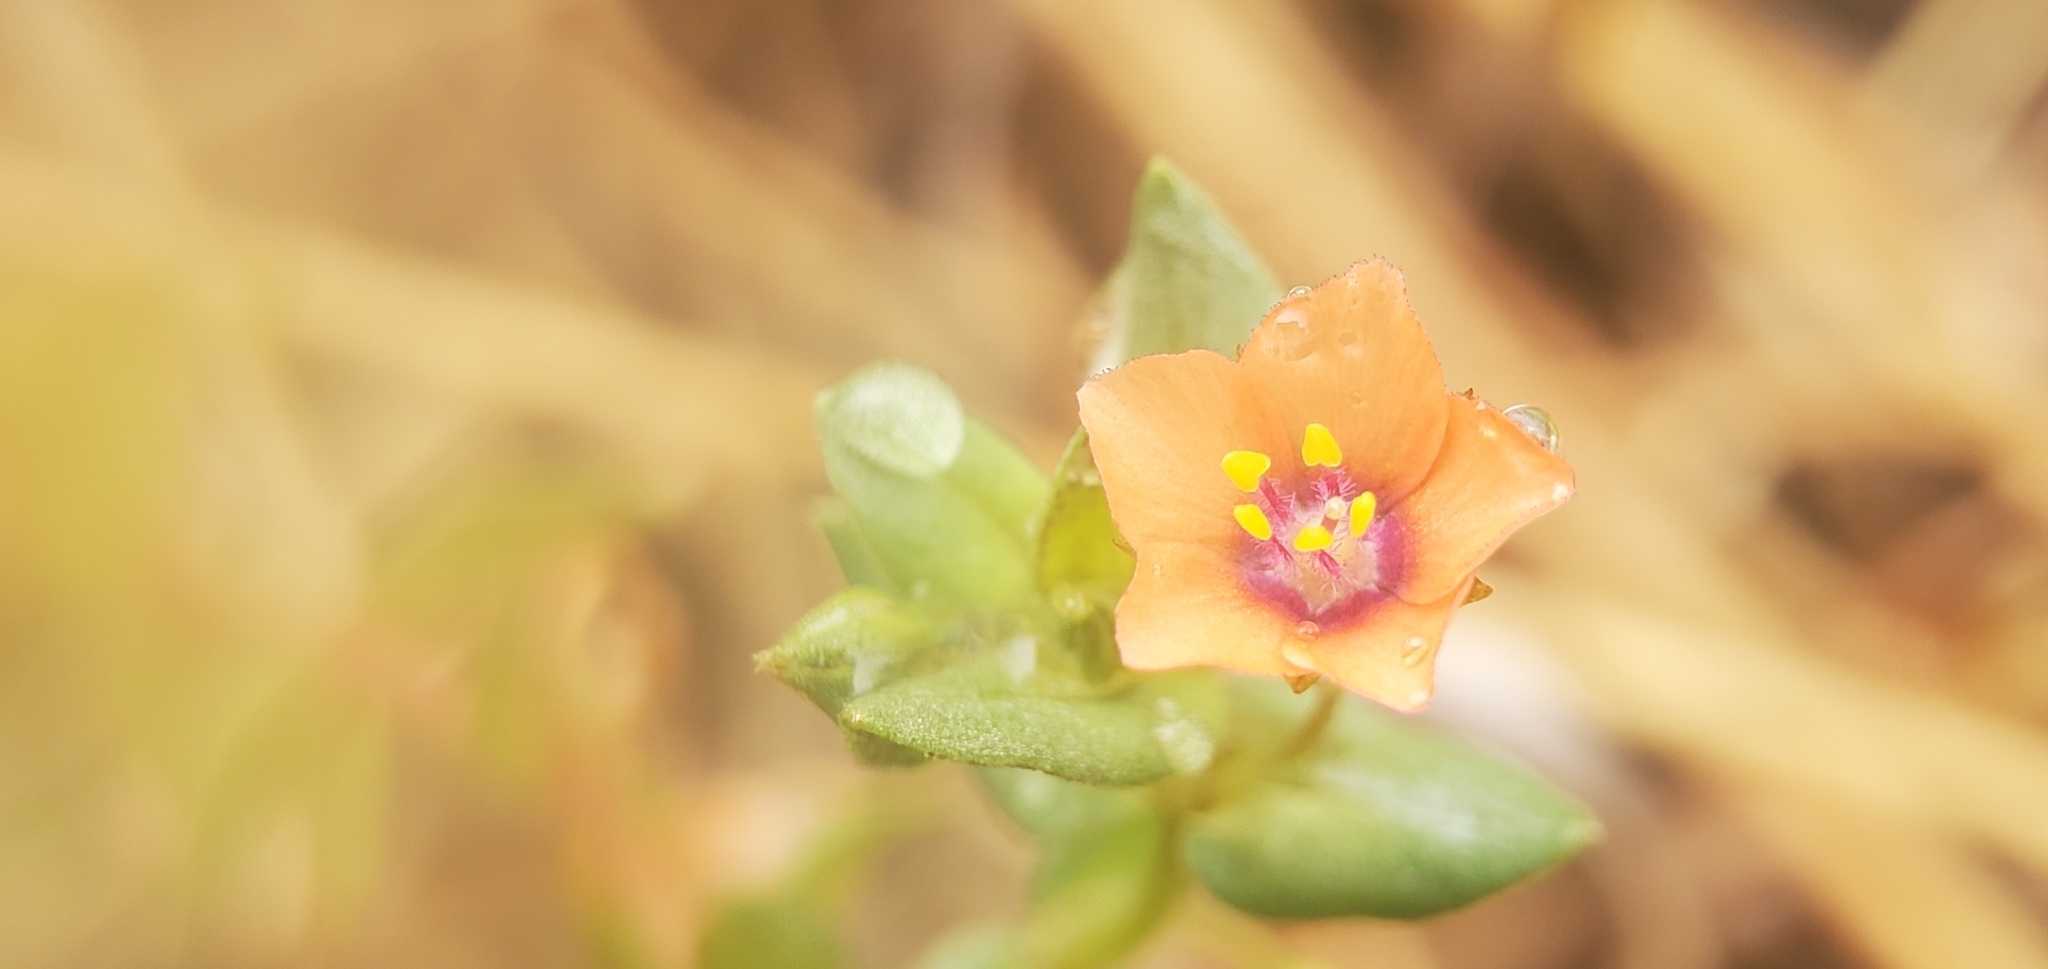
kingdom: Plantae
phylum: Tracheophyta
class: Magnoliopsida
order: Ericales
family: Primulaceae
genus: Lysimachia
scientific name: Lysimachia arvensis
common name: Scarlet pimpernel
